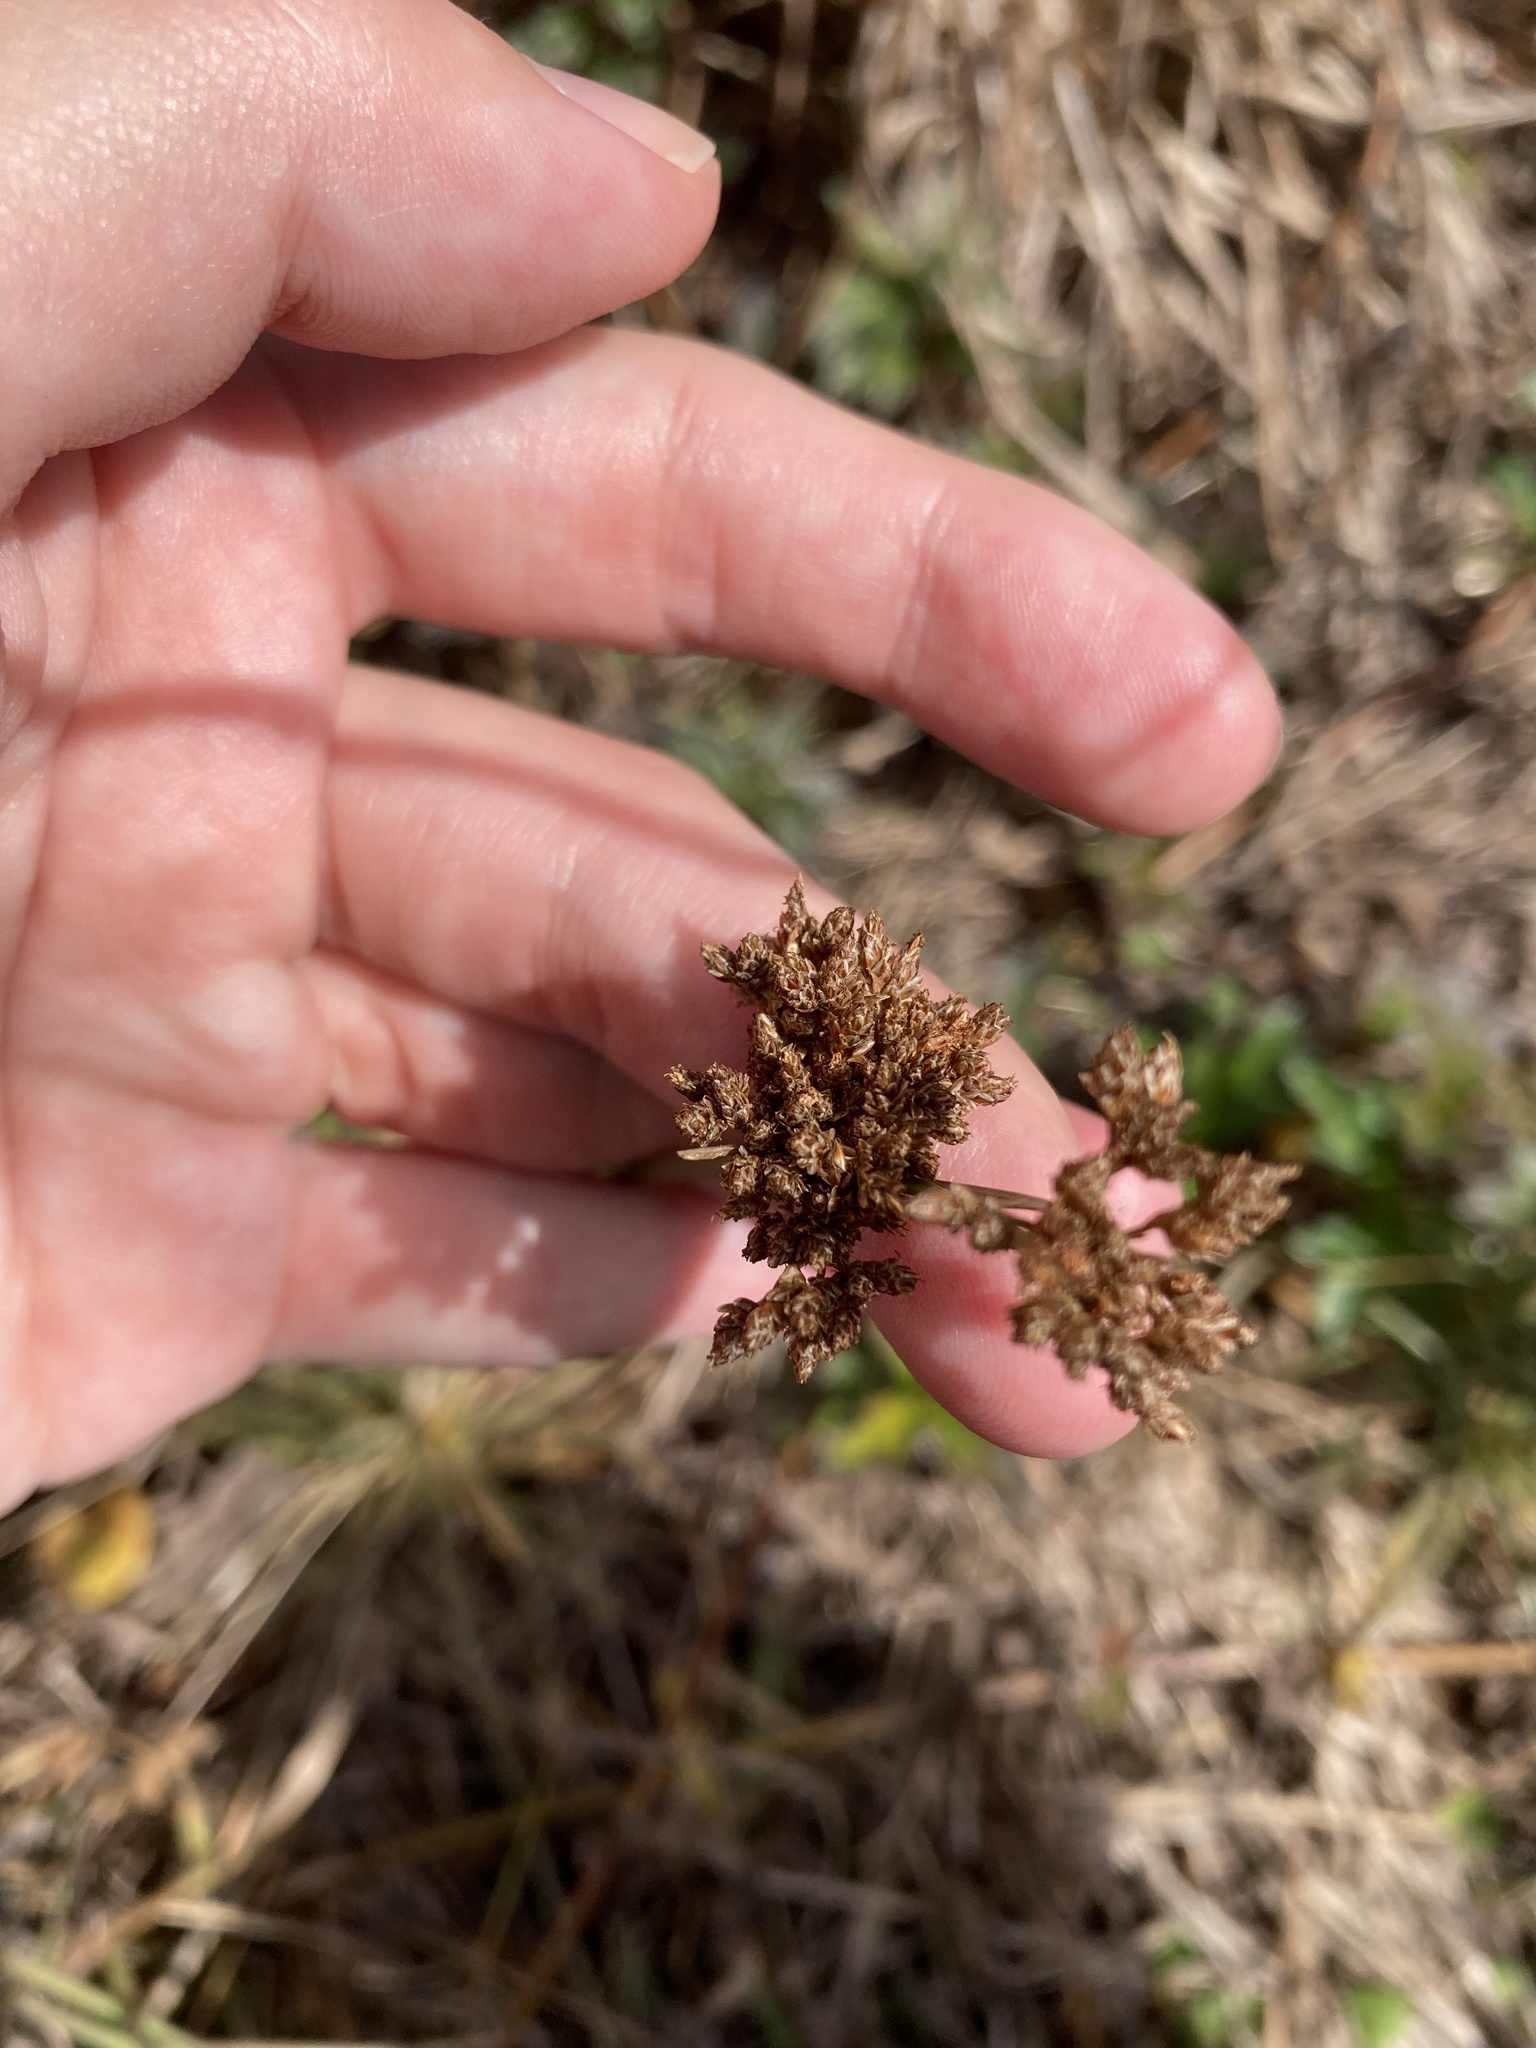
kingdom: Plantae
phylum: Tracheophyta
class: Liliopsida
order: Poales
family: Cyperaceae
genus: Fimbristylis
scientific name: Fimbristylis cymosa
